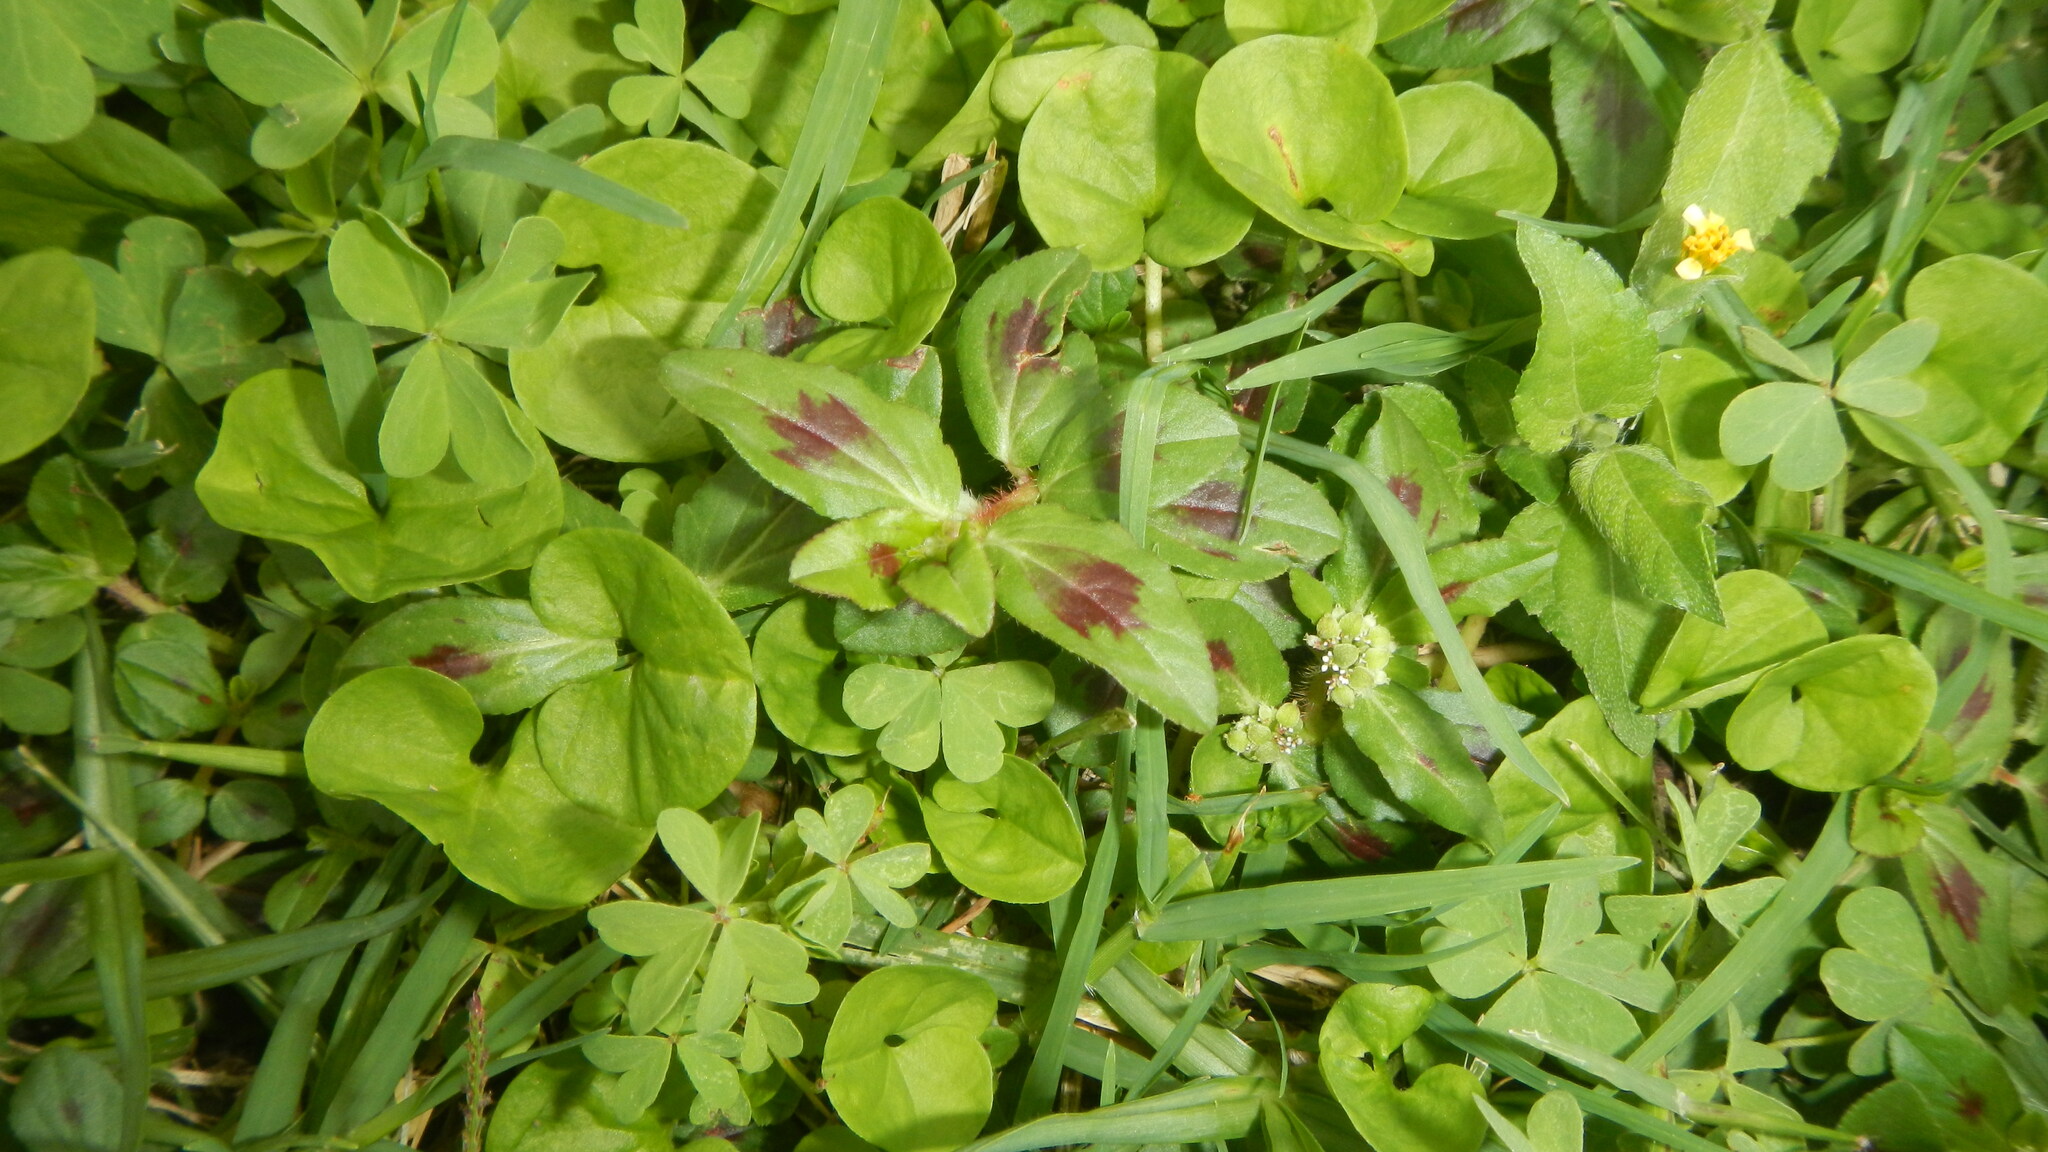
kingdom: Plantae
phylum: Tracheophyta
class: Magnoliopsida
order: Malpighiales
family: Euphorbiaceae
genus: Euphorbia
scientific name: Euphorbia ophthalmica
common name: Florida hammock sandmat
